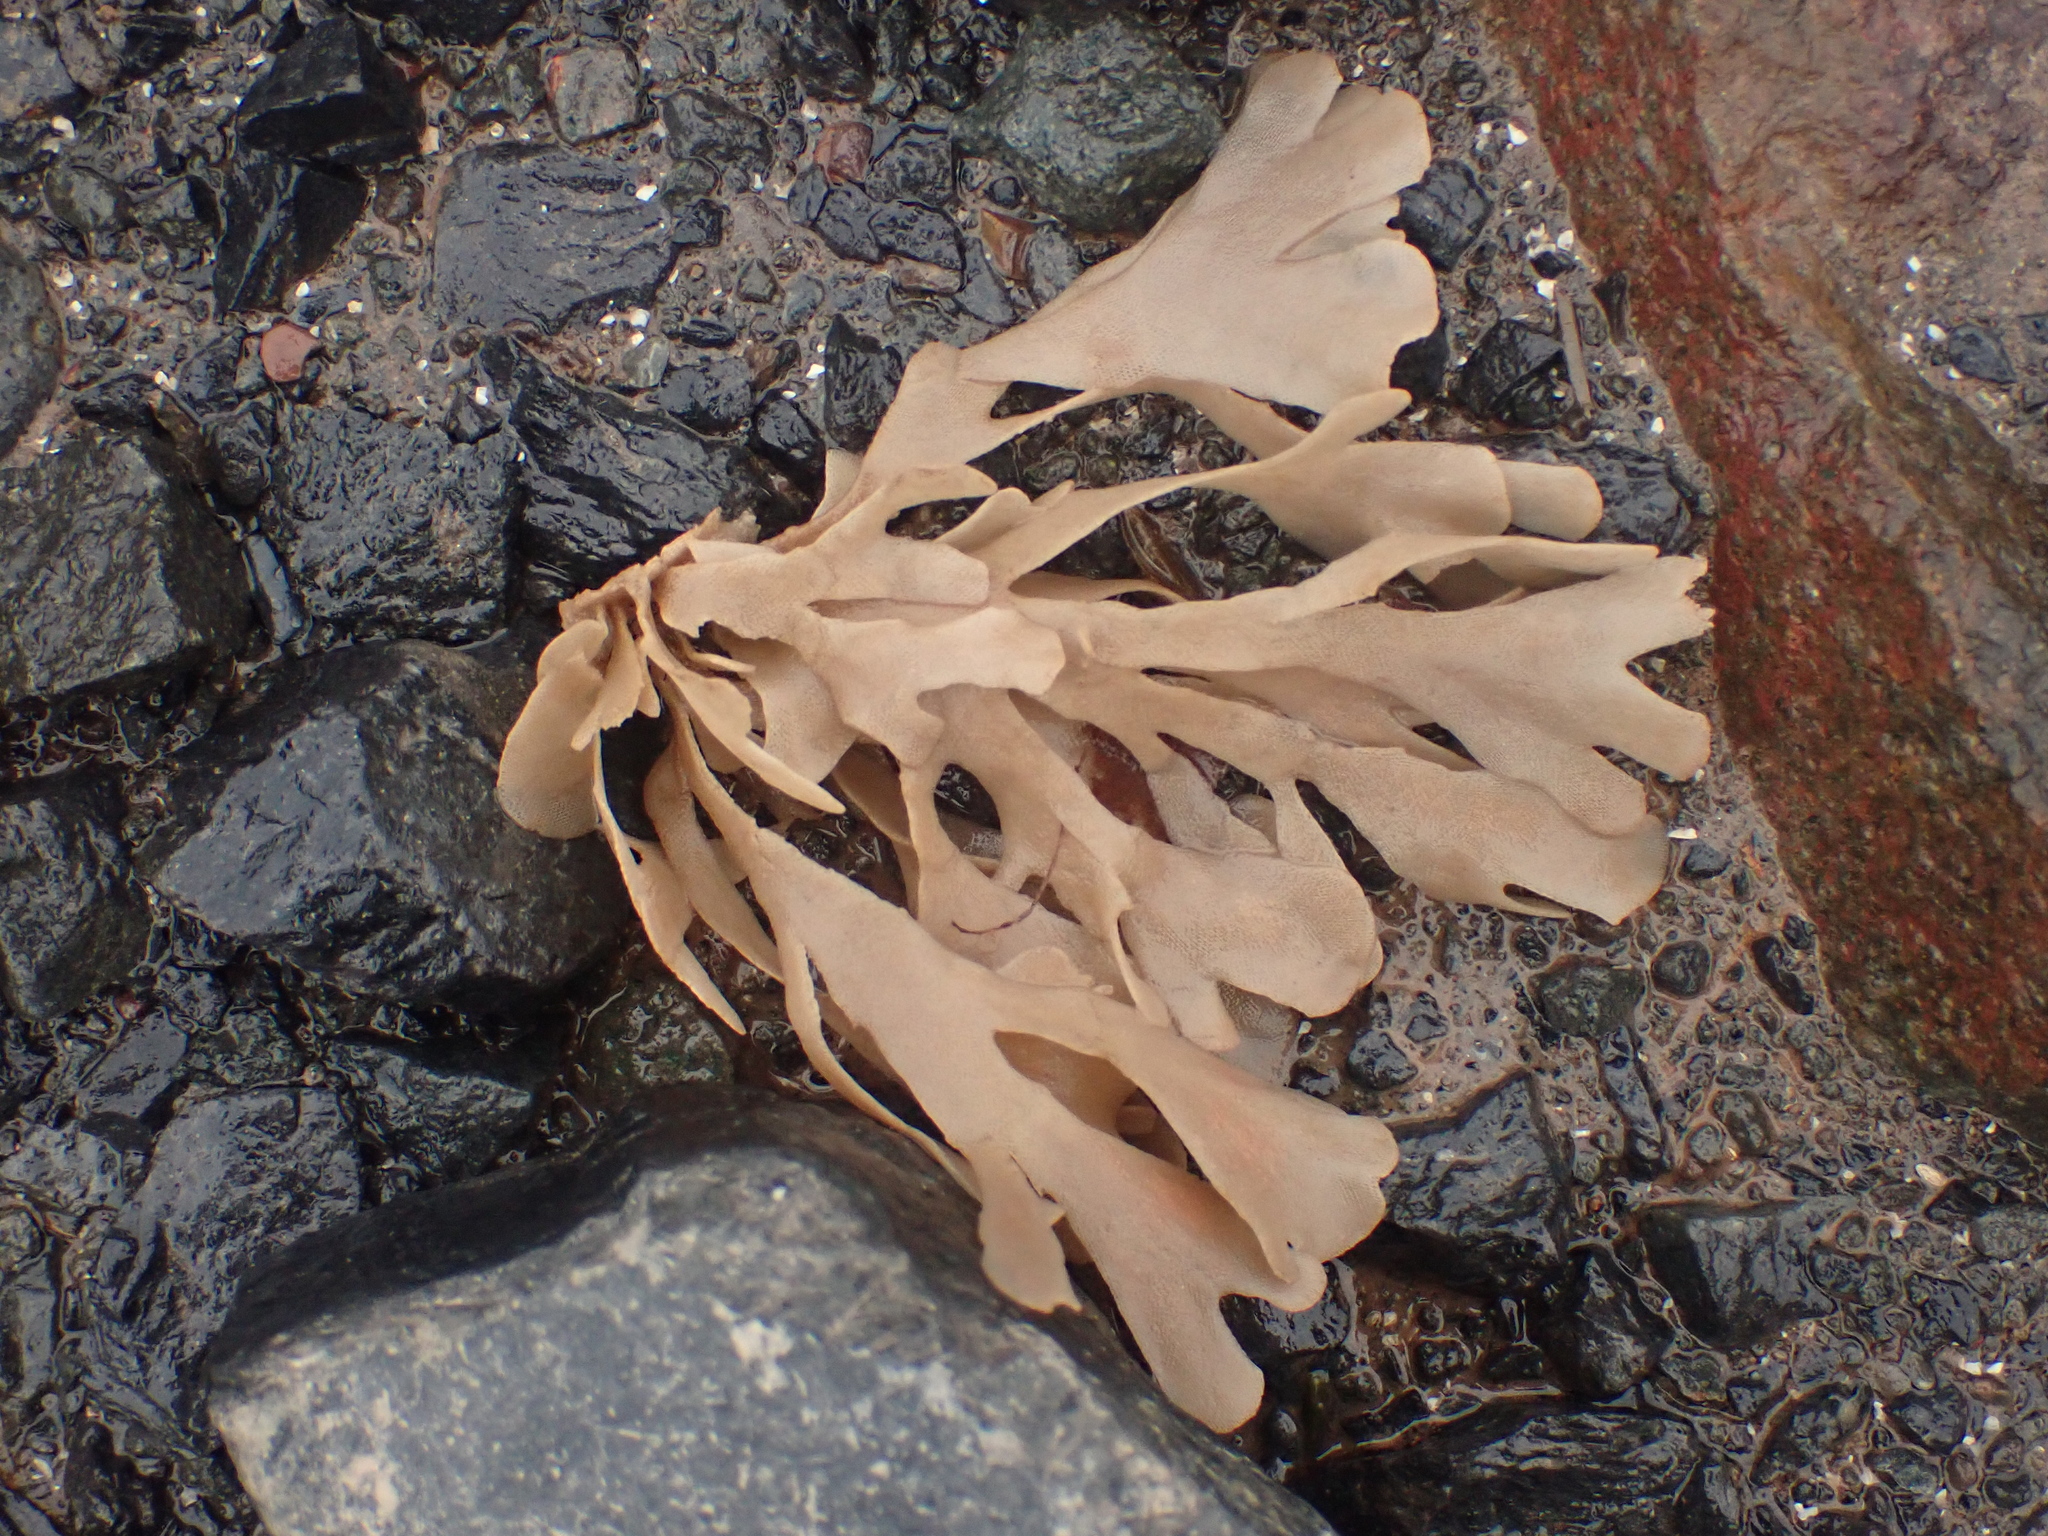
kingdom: Animalia
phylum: Bryozoa
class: Gymnolaemata
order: Cheilostomatida
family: Flustridae
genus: Flustra
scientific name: Flustra foliacea
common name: Hornwrack
